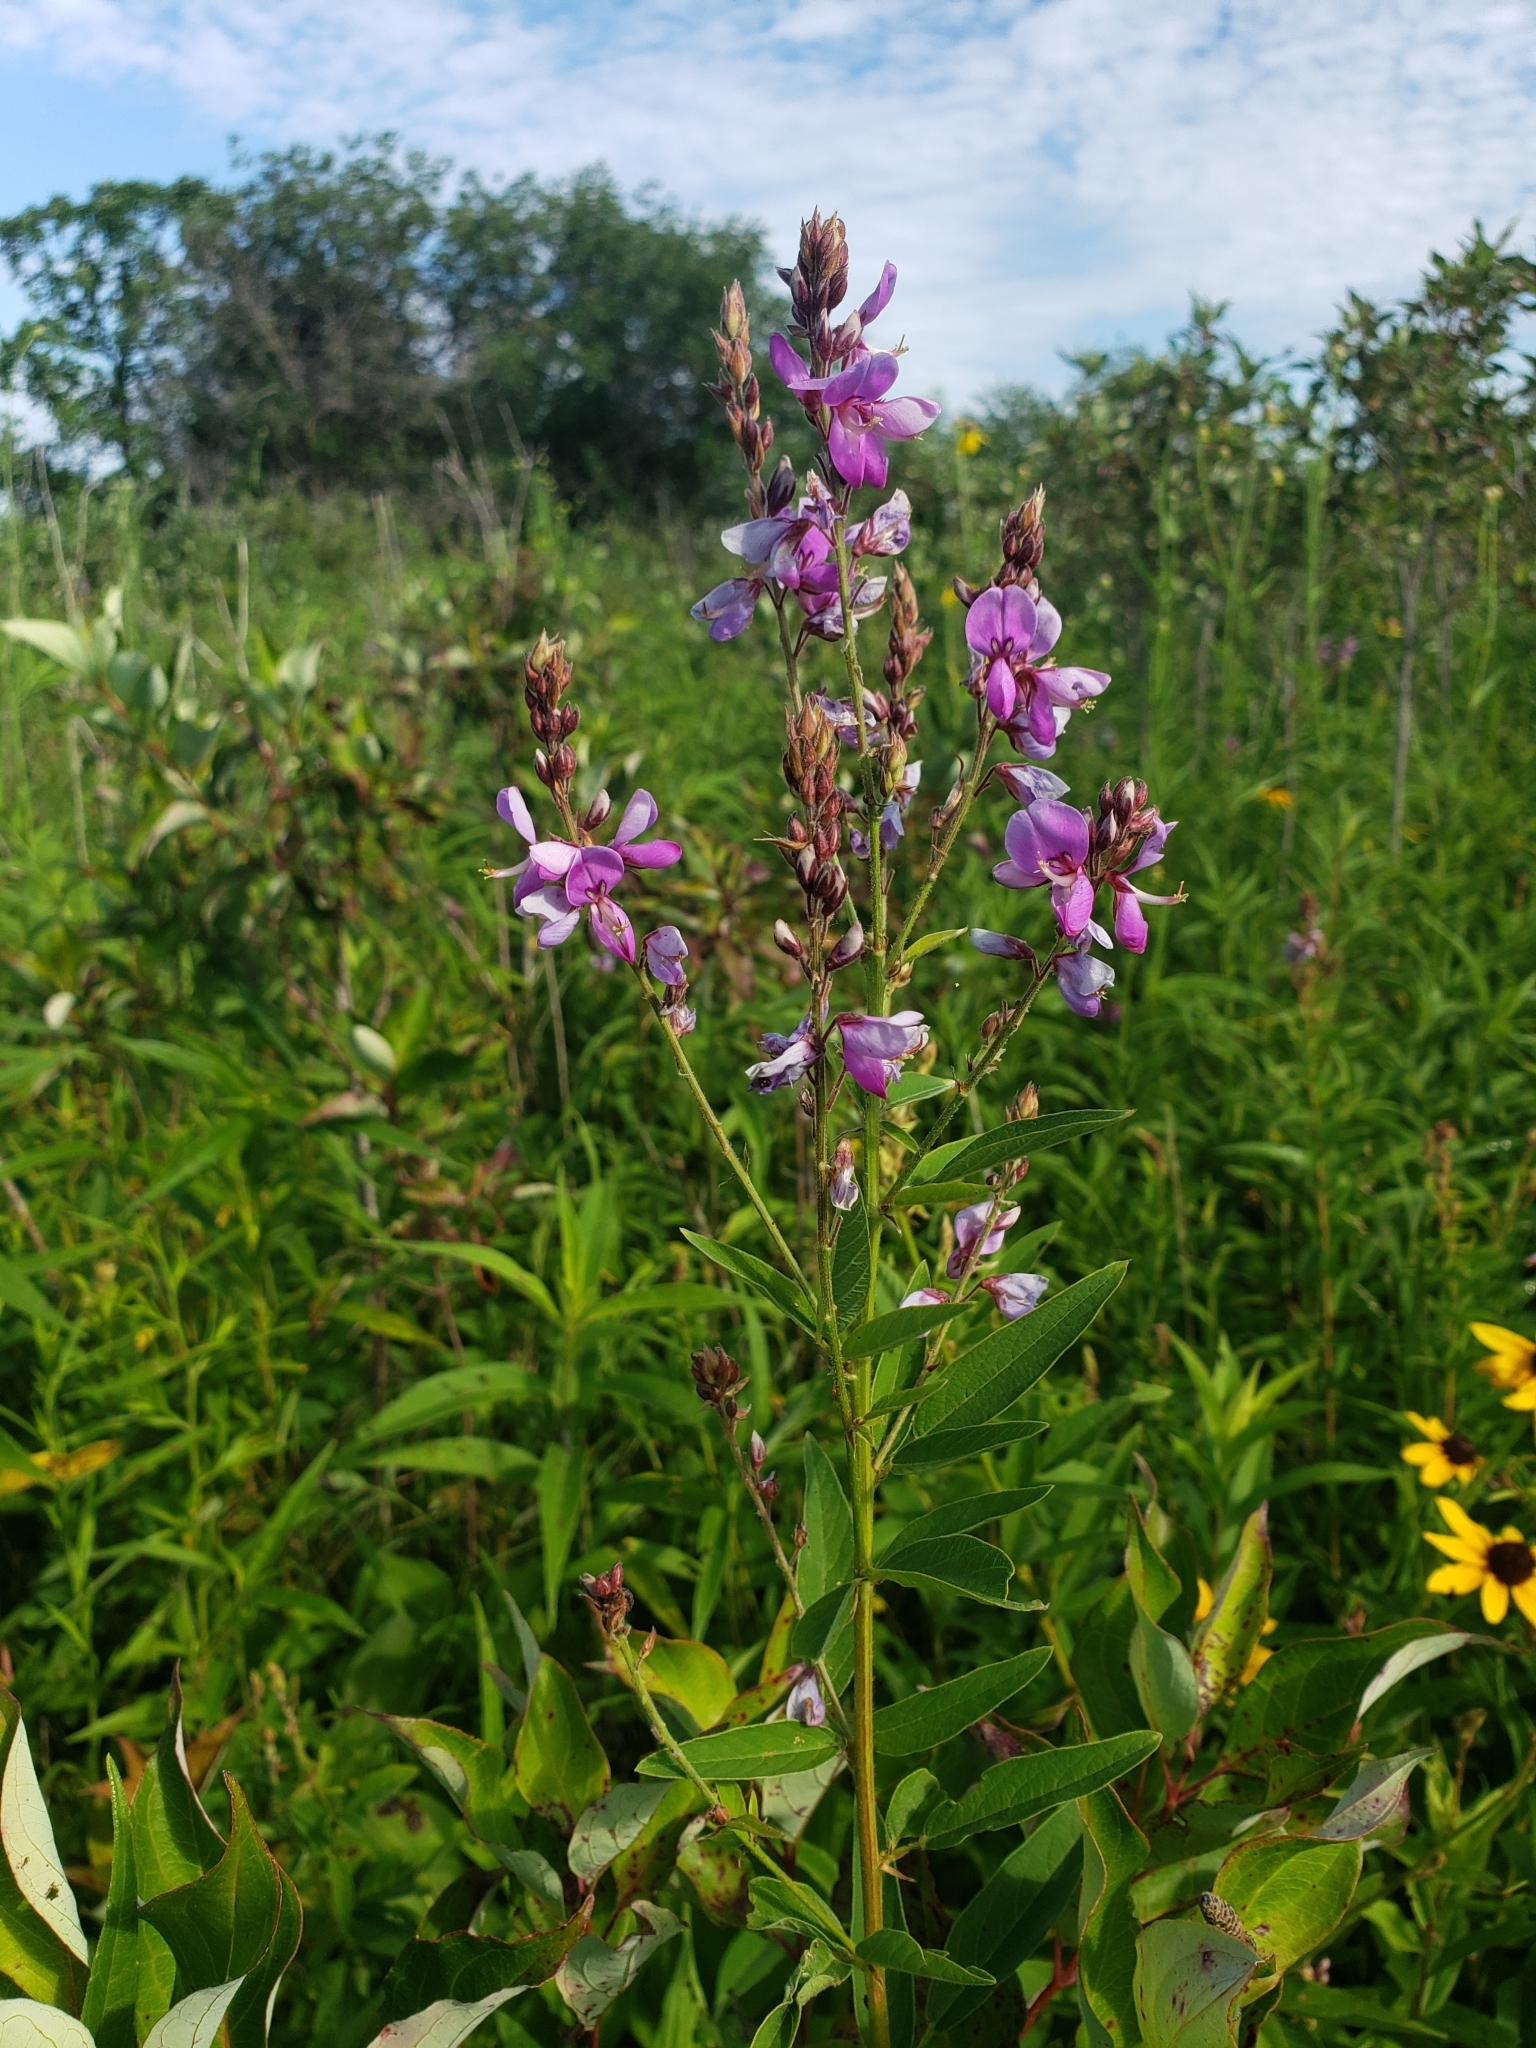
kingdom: Plantae
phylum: Tracheophyta
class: Magnoliopsida
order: Fabales
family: Fabaceae
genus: Desmodium
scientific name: Desmodium canadense
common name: Canada tick-trefoil
